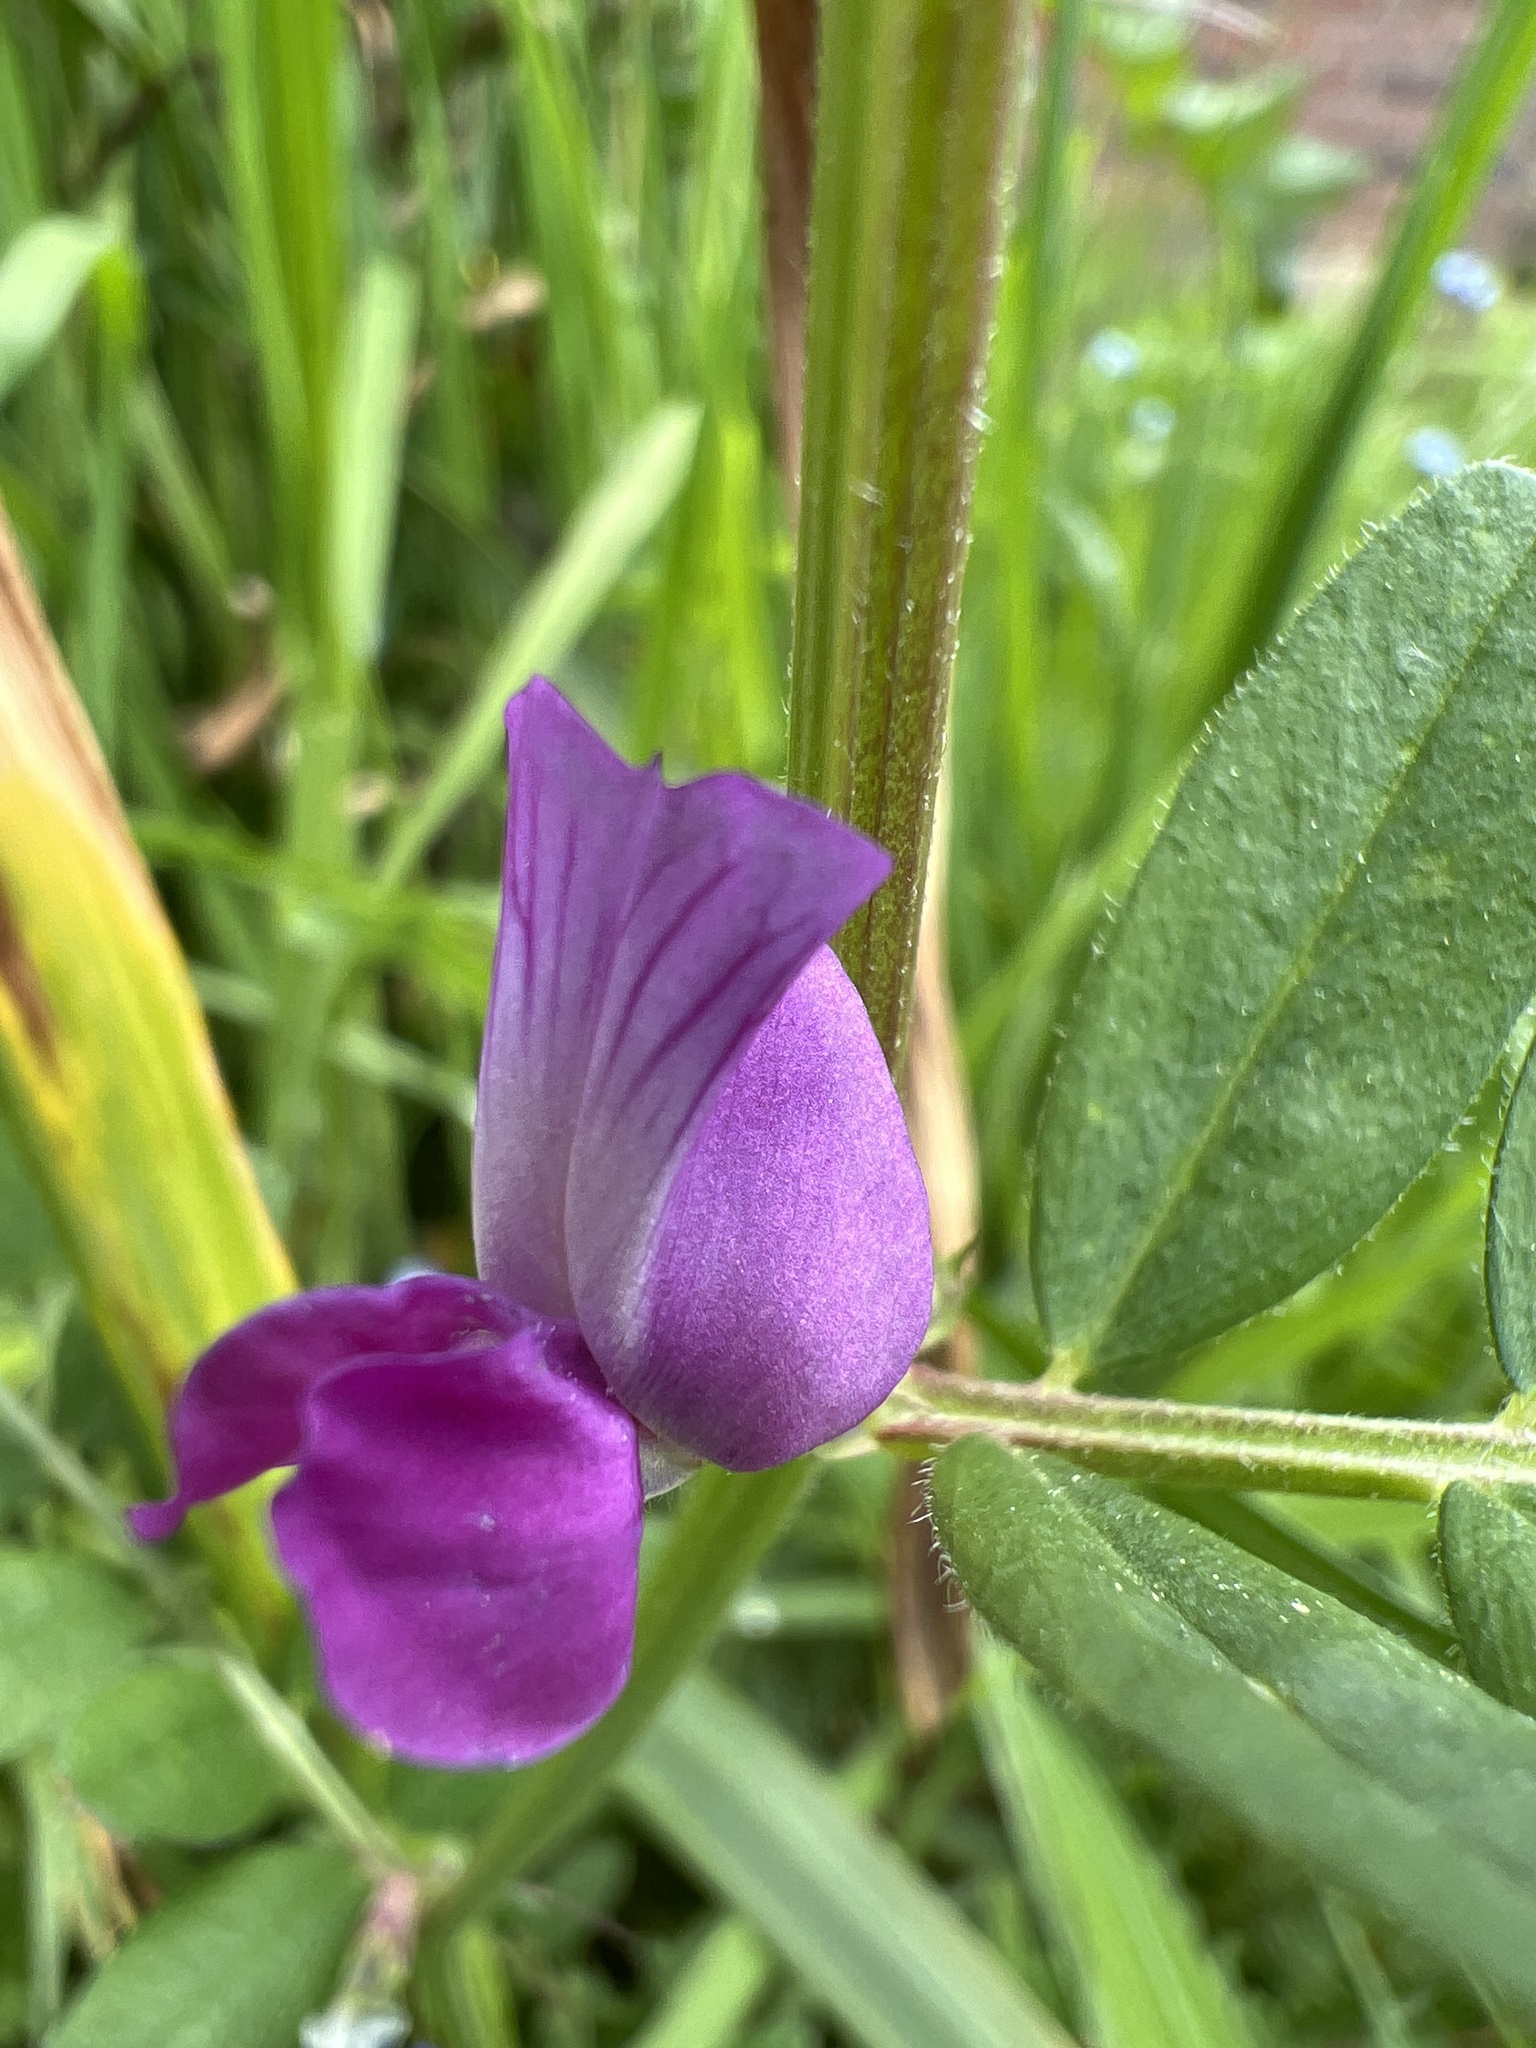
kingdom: Plantae
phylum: Tracheophyta
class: Magnoliopsida
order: Fabales
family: Fabaceae
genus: Vicia
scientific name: Vicia sativa
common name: Garden vetch
